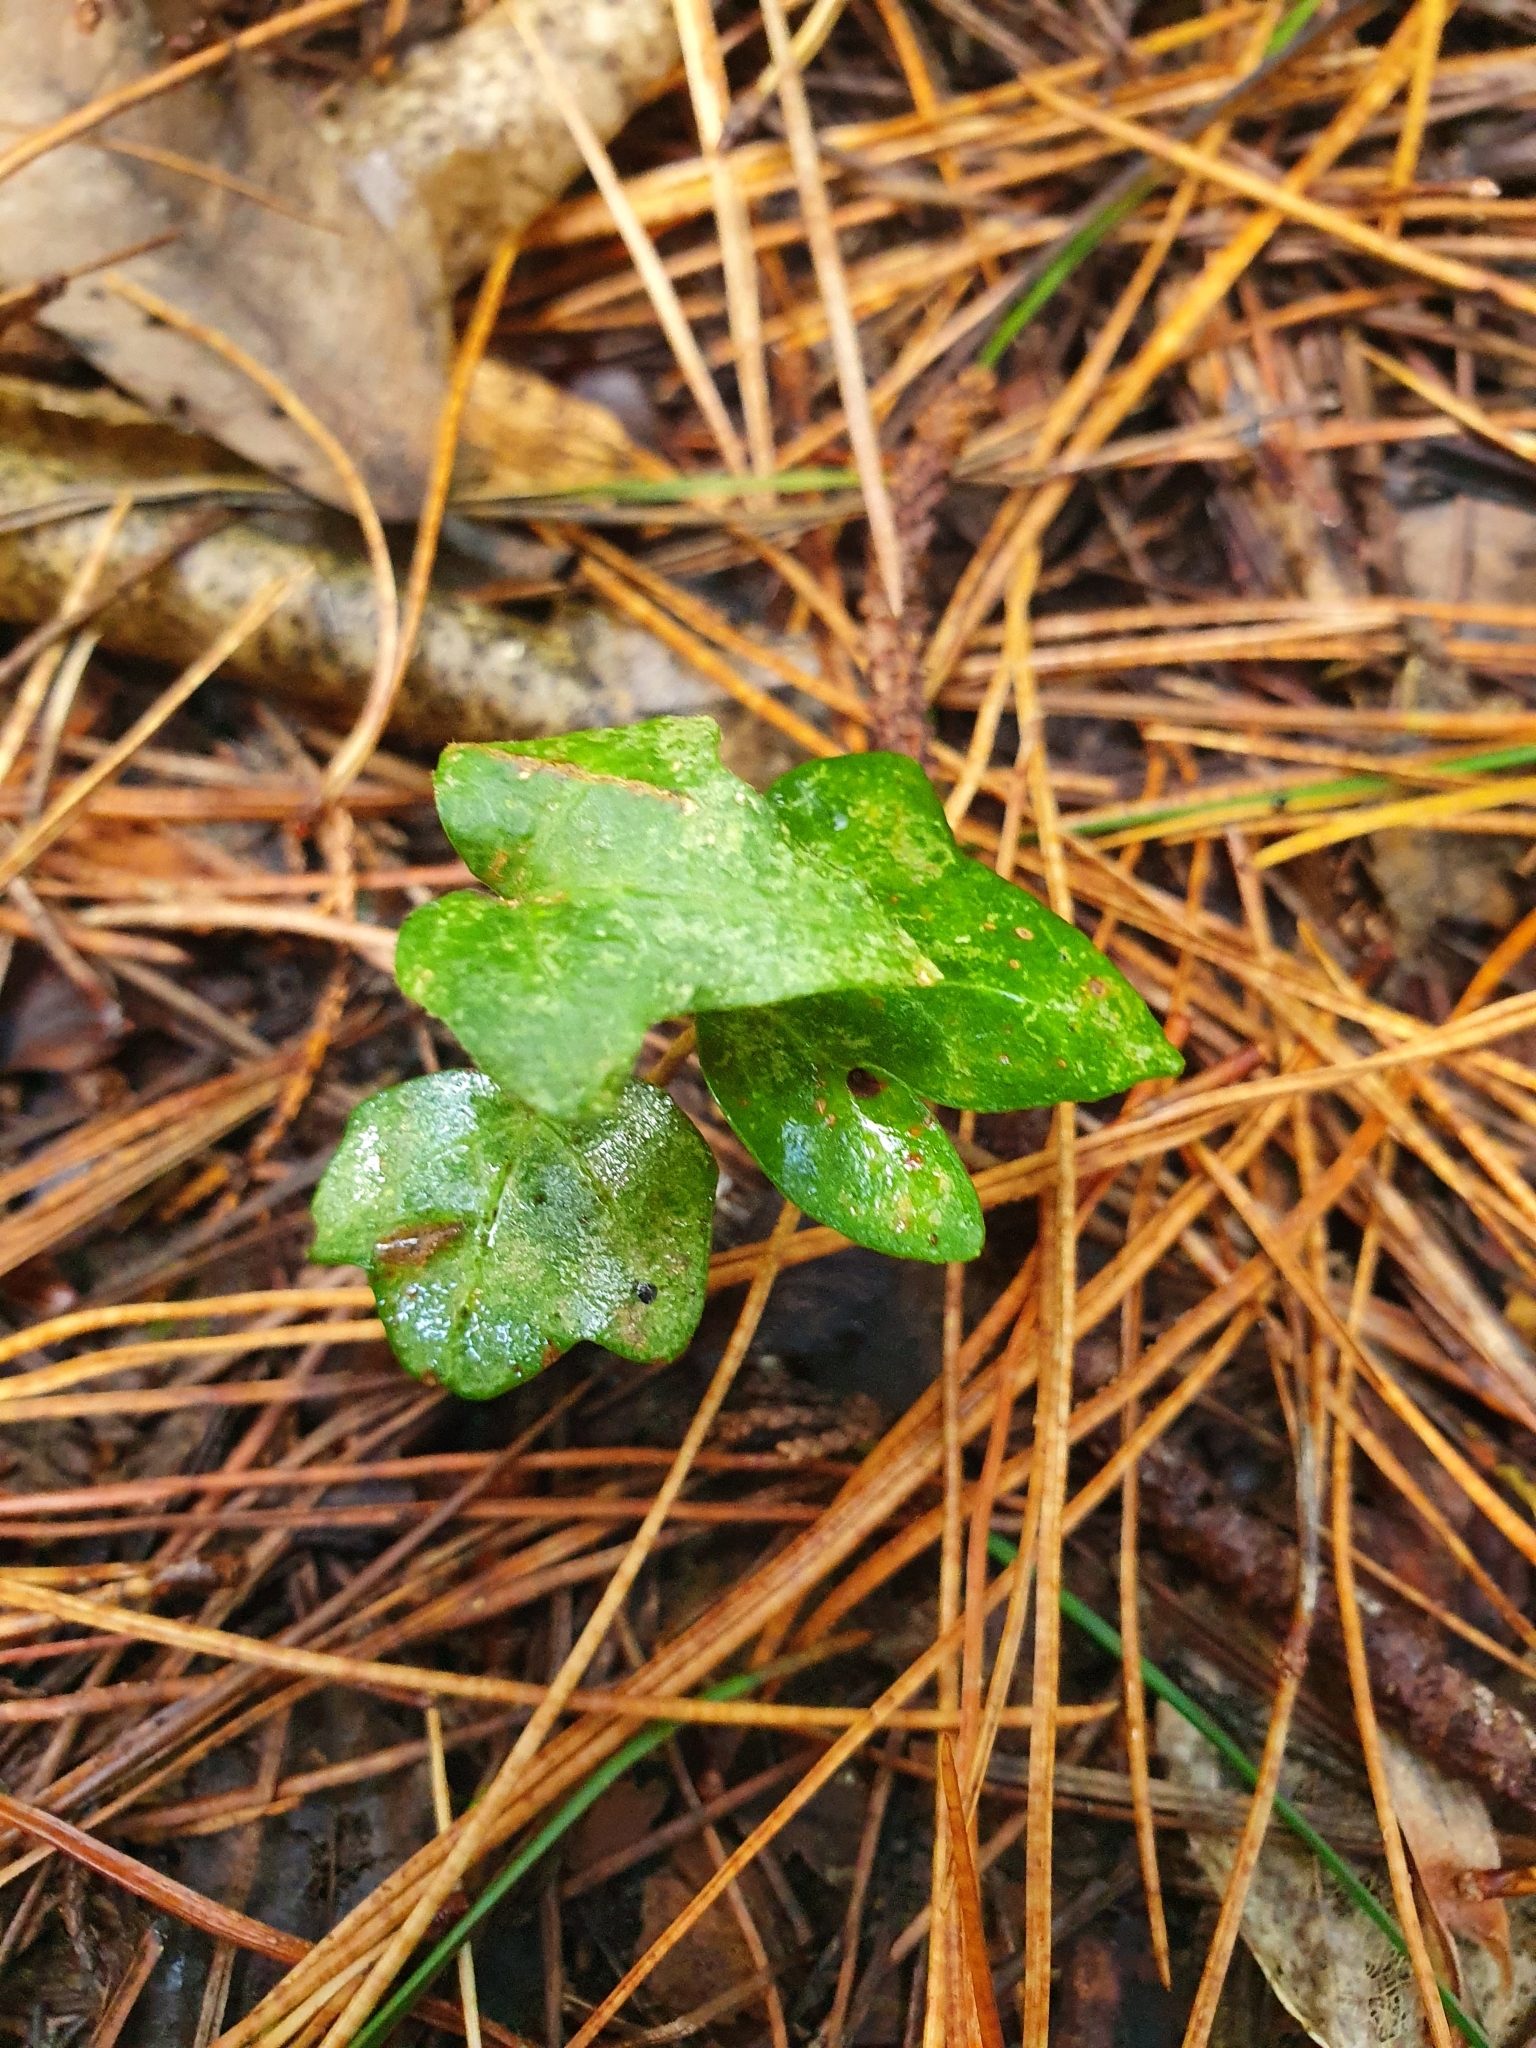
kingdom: Plantae
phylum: Tracheophyta
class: Magnoliopsida
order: Apiales
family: Araliaceae
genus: Hedera
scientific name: Hedera helix
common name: Ivy
